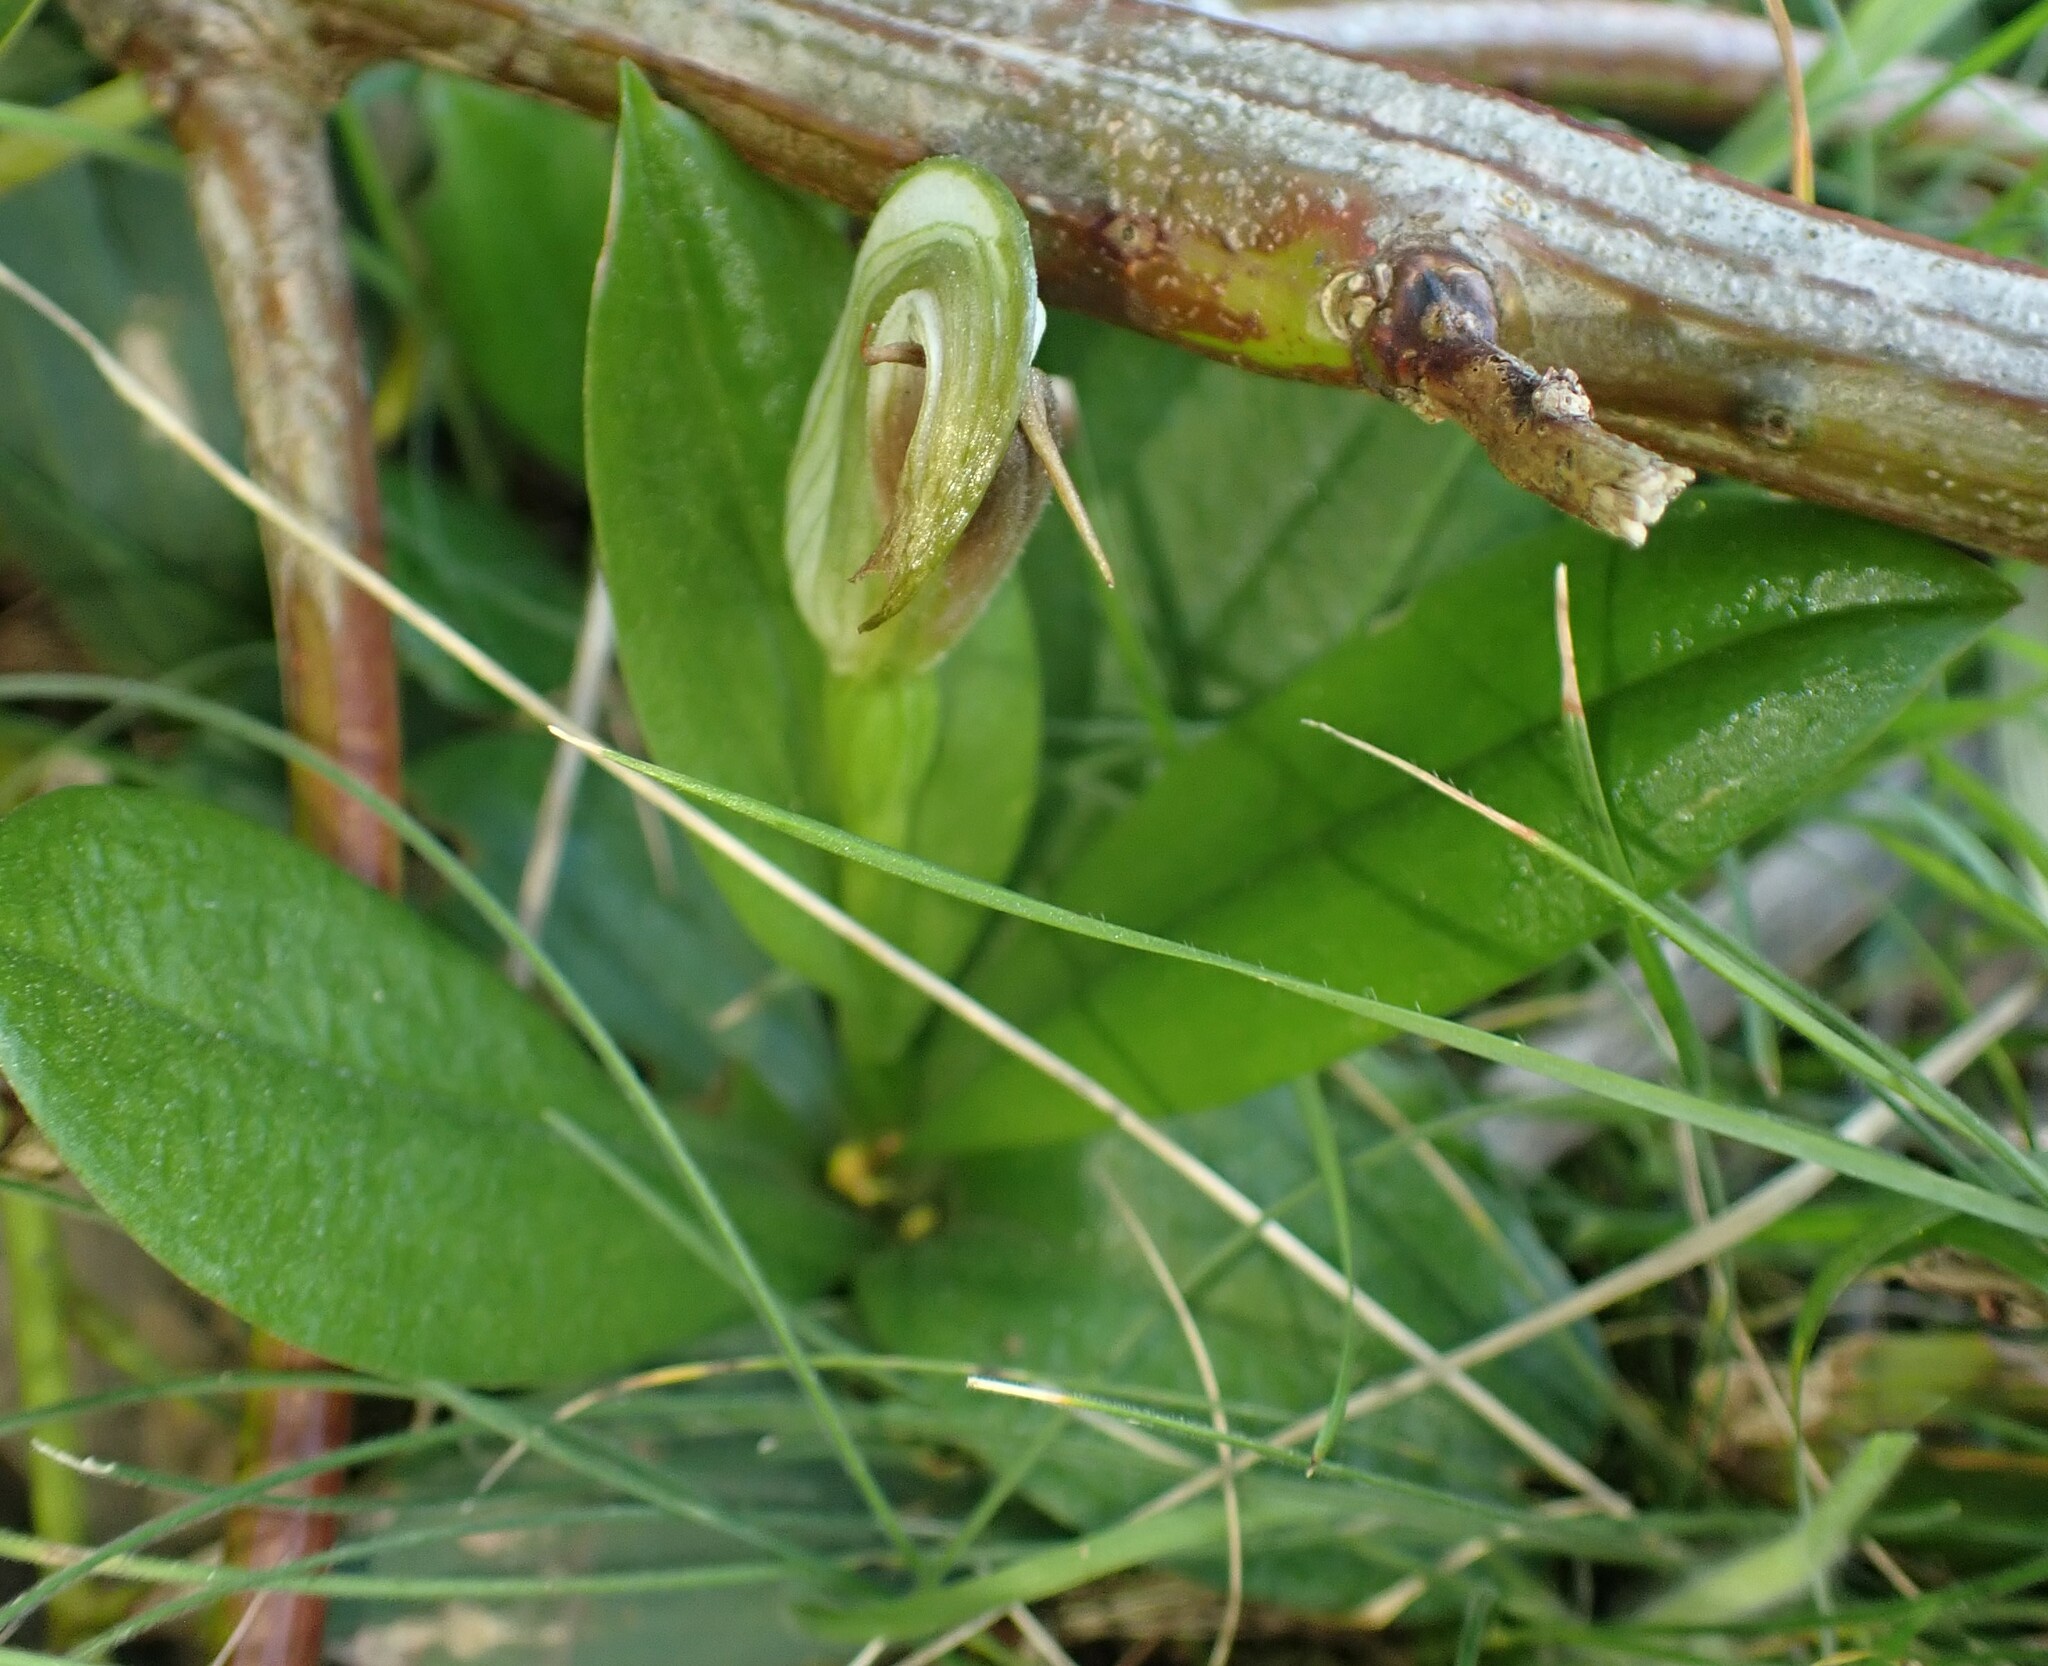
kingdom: Plantae
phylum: Tracheophyta
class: Liliopsida
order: Asparagales
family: Orchidaceae
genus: Pterostylis
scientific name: Pterostylis cucullata
